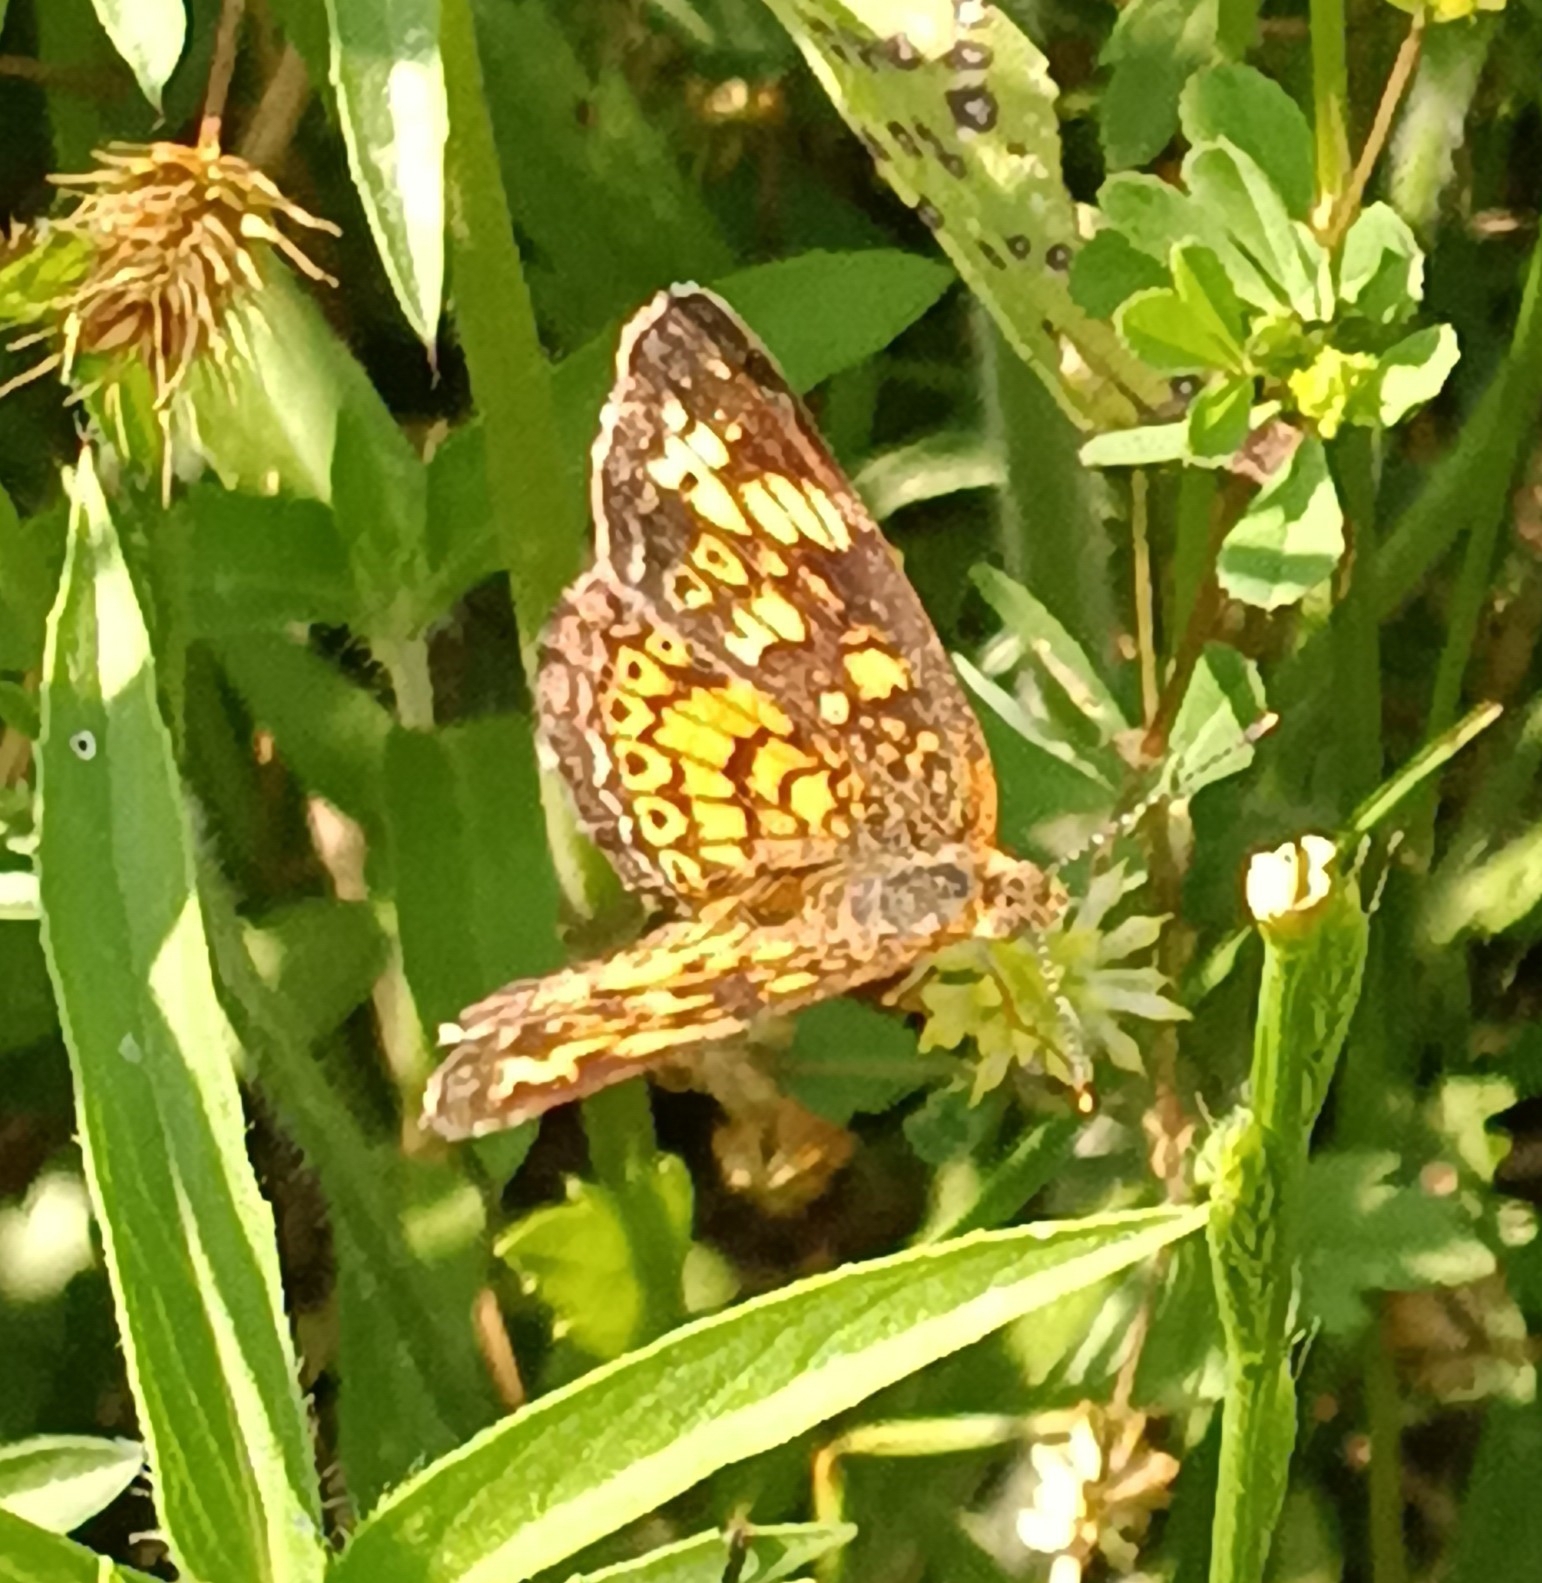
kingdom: Animalia
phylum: Arthropoda
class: Insecta
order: Lepidoptera
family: Nymphalidae
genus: Phyciodes
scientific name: Phyciodes tharos
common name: Pearl crescent
